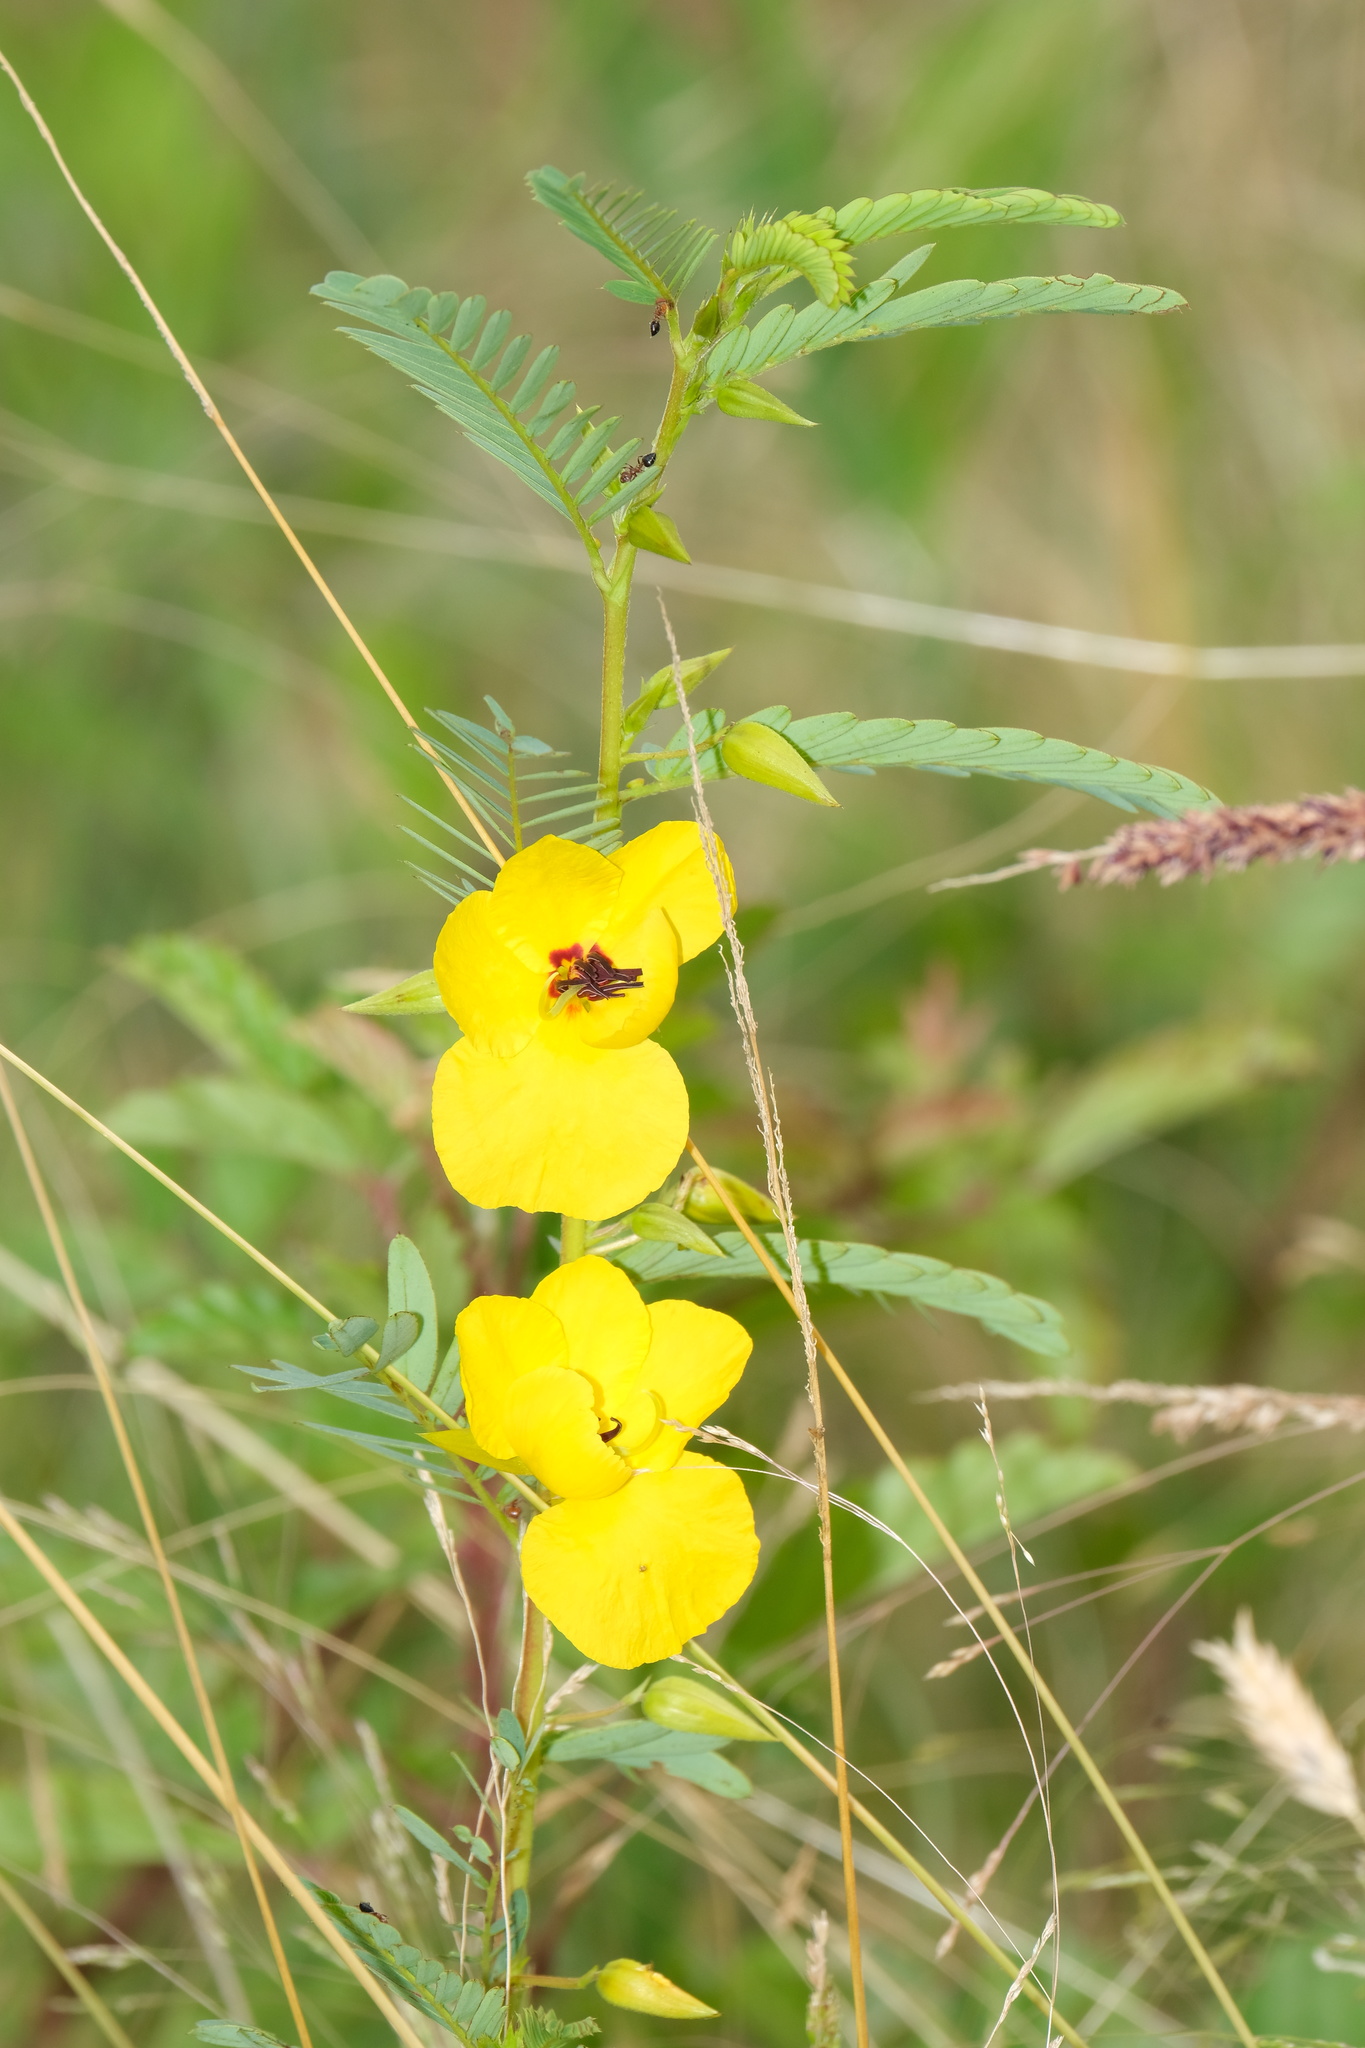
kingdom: Plantae
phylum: Tracheophyta
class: Magnoliopsida
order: Fabales
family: Fabaceae
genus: Chamaecrista
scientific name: Chamaecrista fasciculata
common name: Golden cassia
